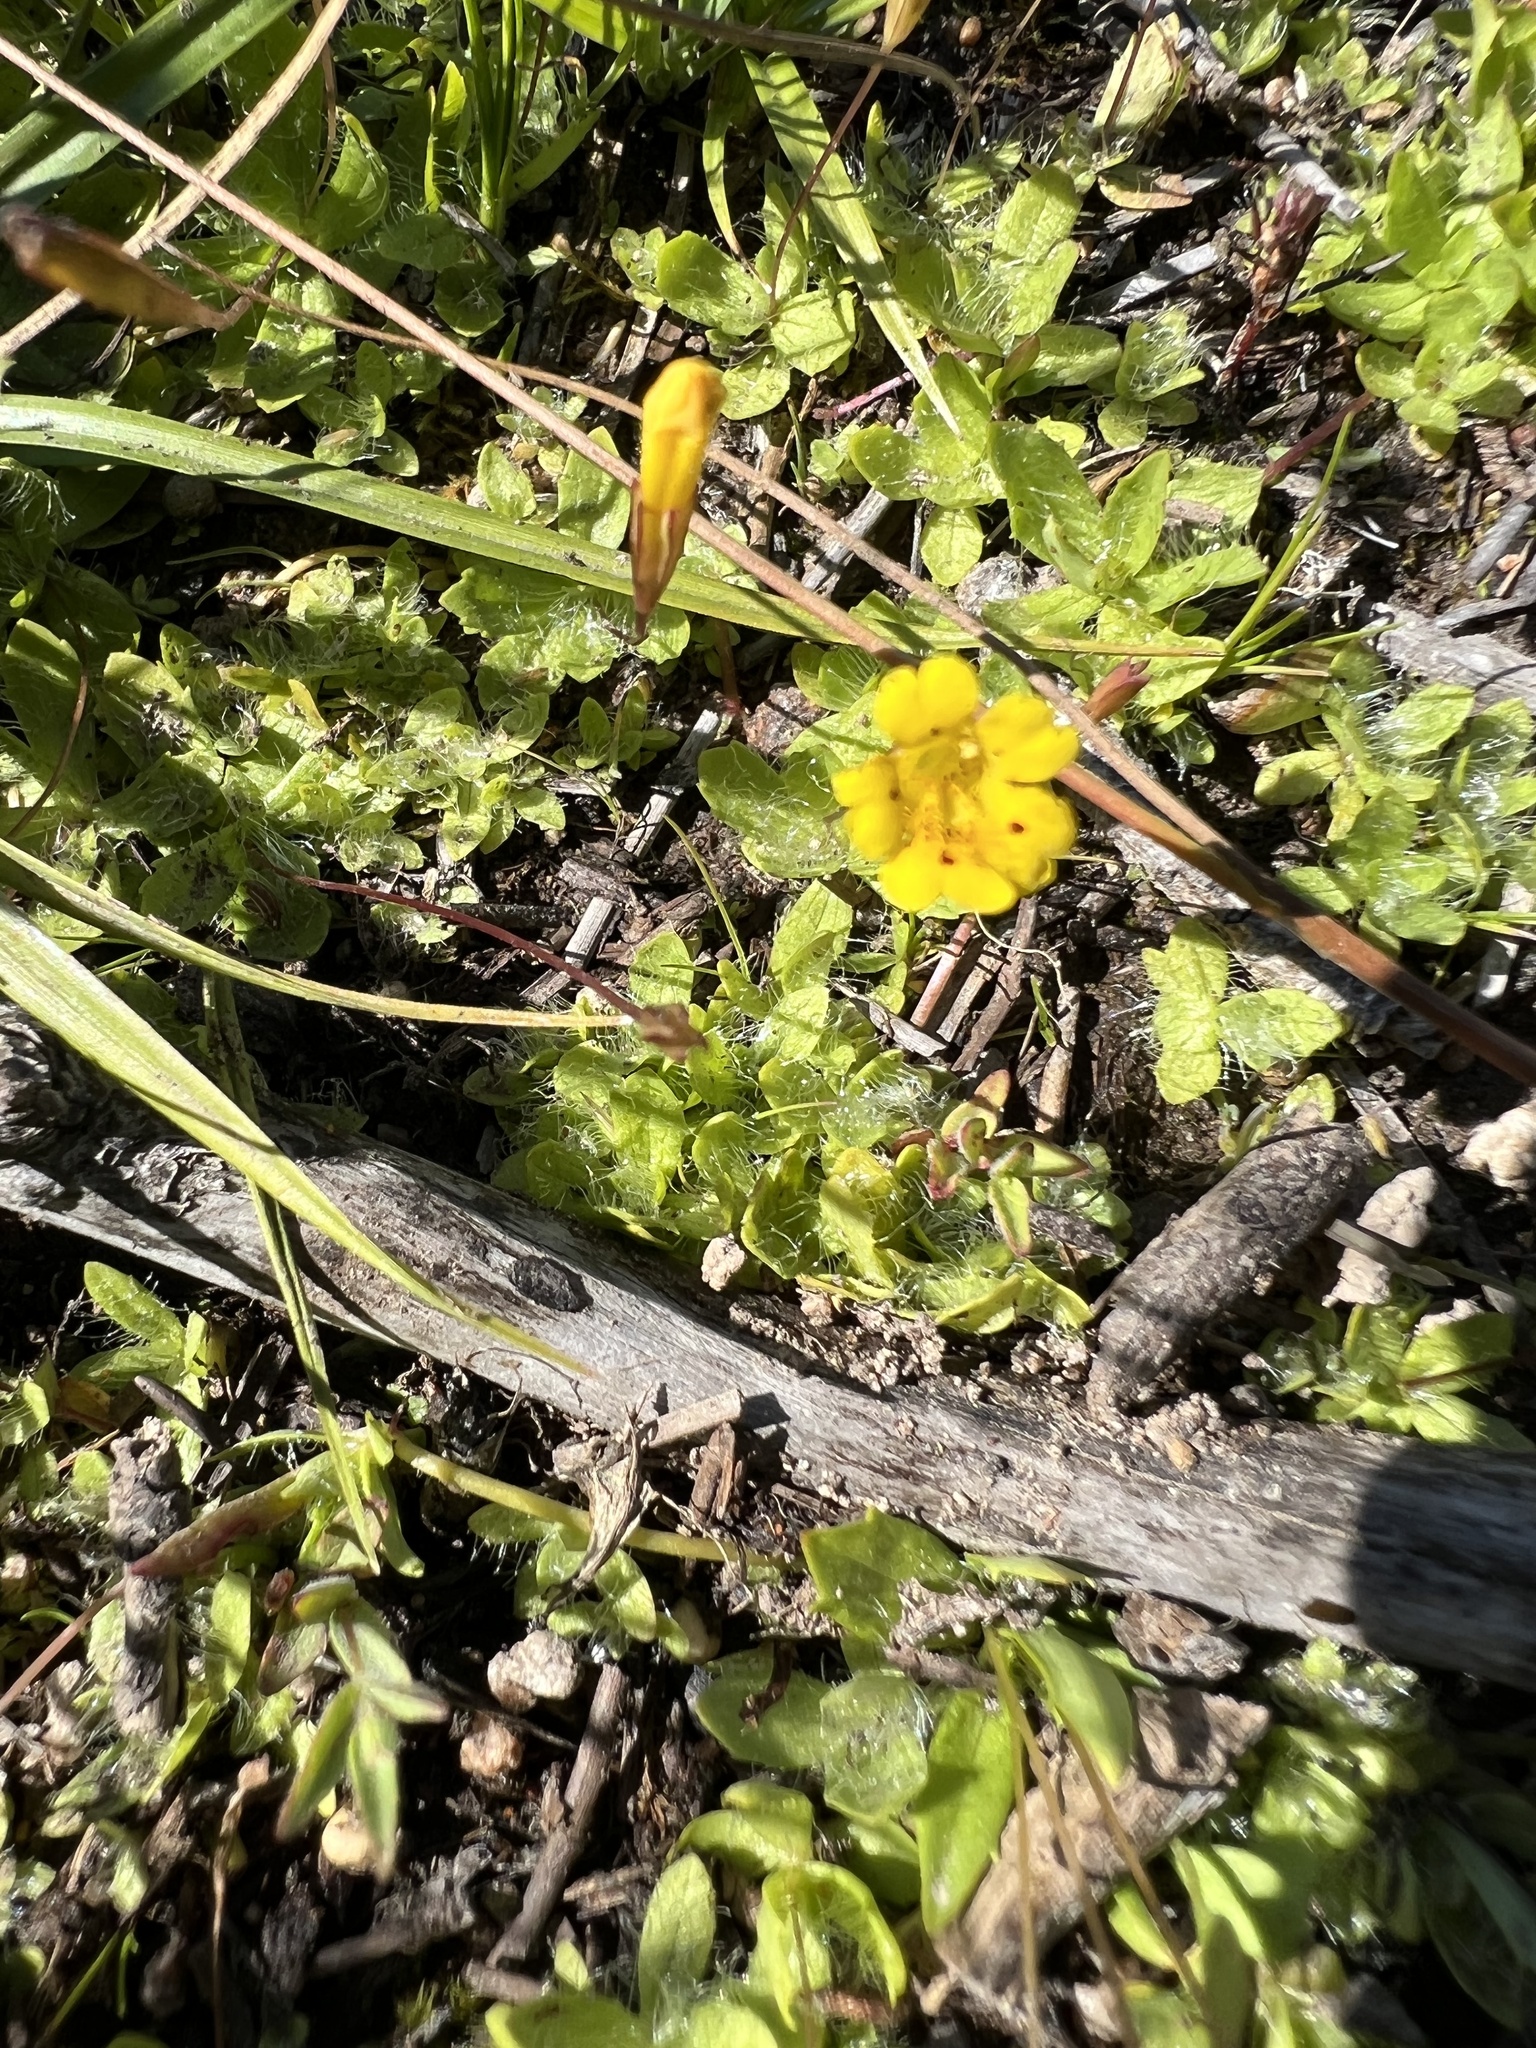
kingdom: Plantae
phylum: Tracheophyta
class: Magnoliopsida
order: Lamiales
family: Phrymaceae
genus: Erythranthe
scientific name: Erythranthe primuloides
